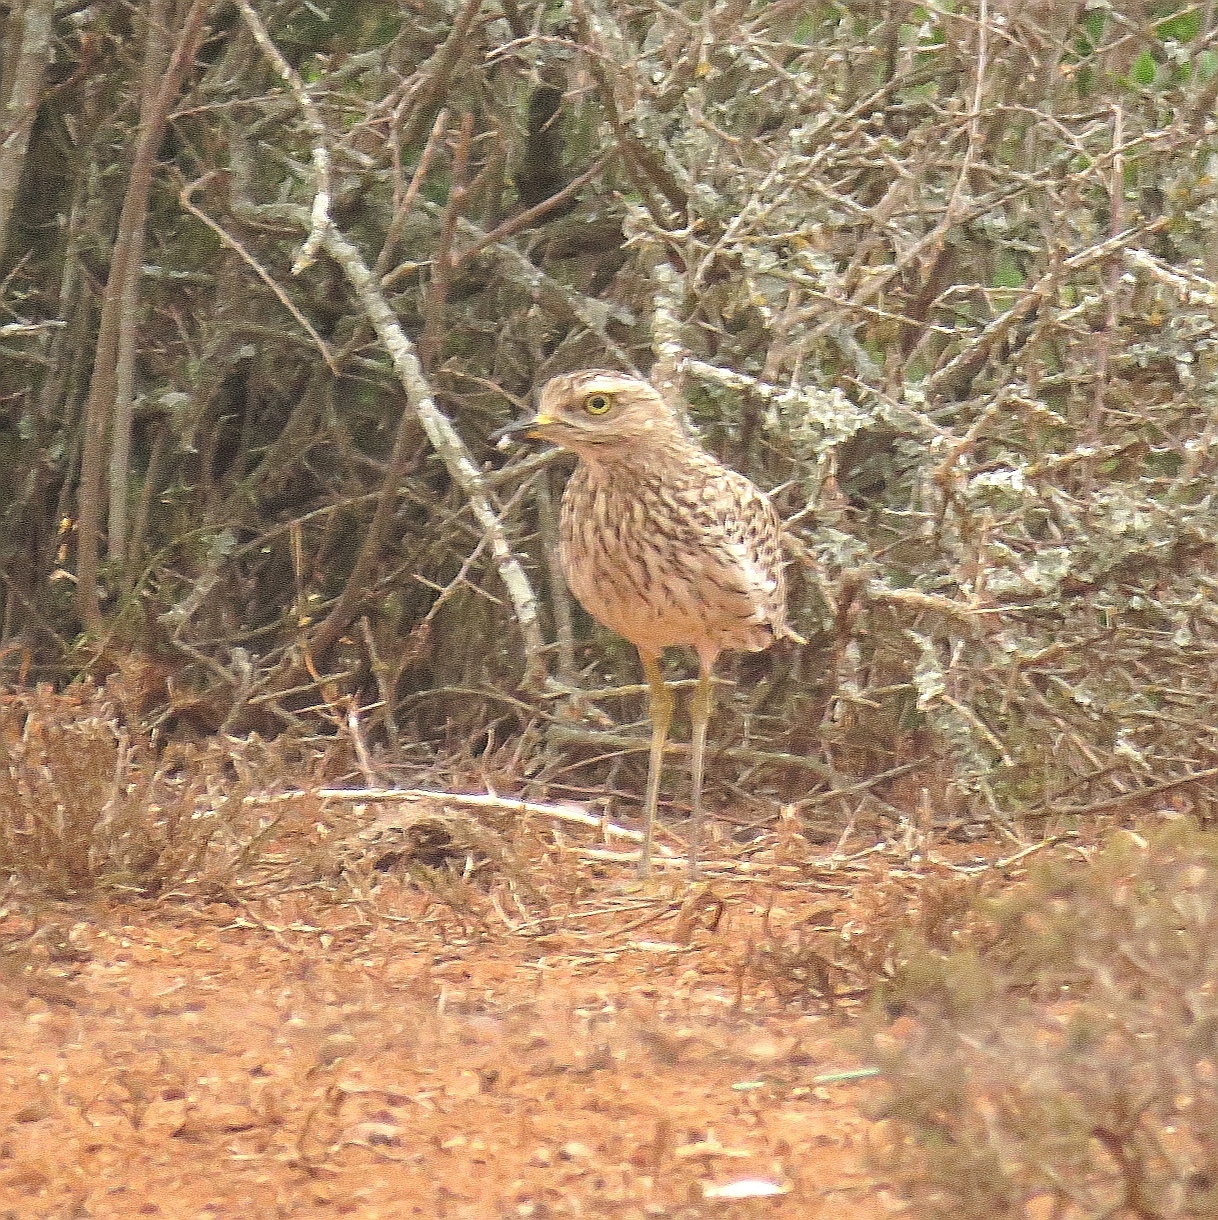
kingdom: Animalia
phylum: Chordata
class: Aves
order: Charadriiformes
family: Burhinidae
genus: Burhinus
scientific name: Burhinus capensis
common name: Spotted thick-knee
